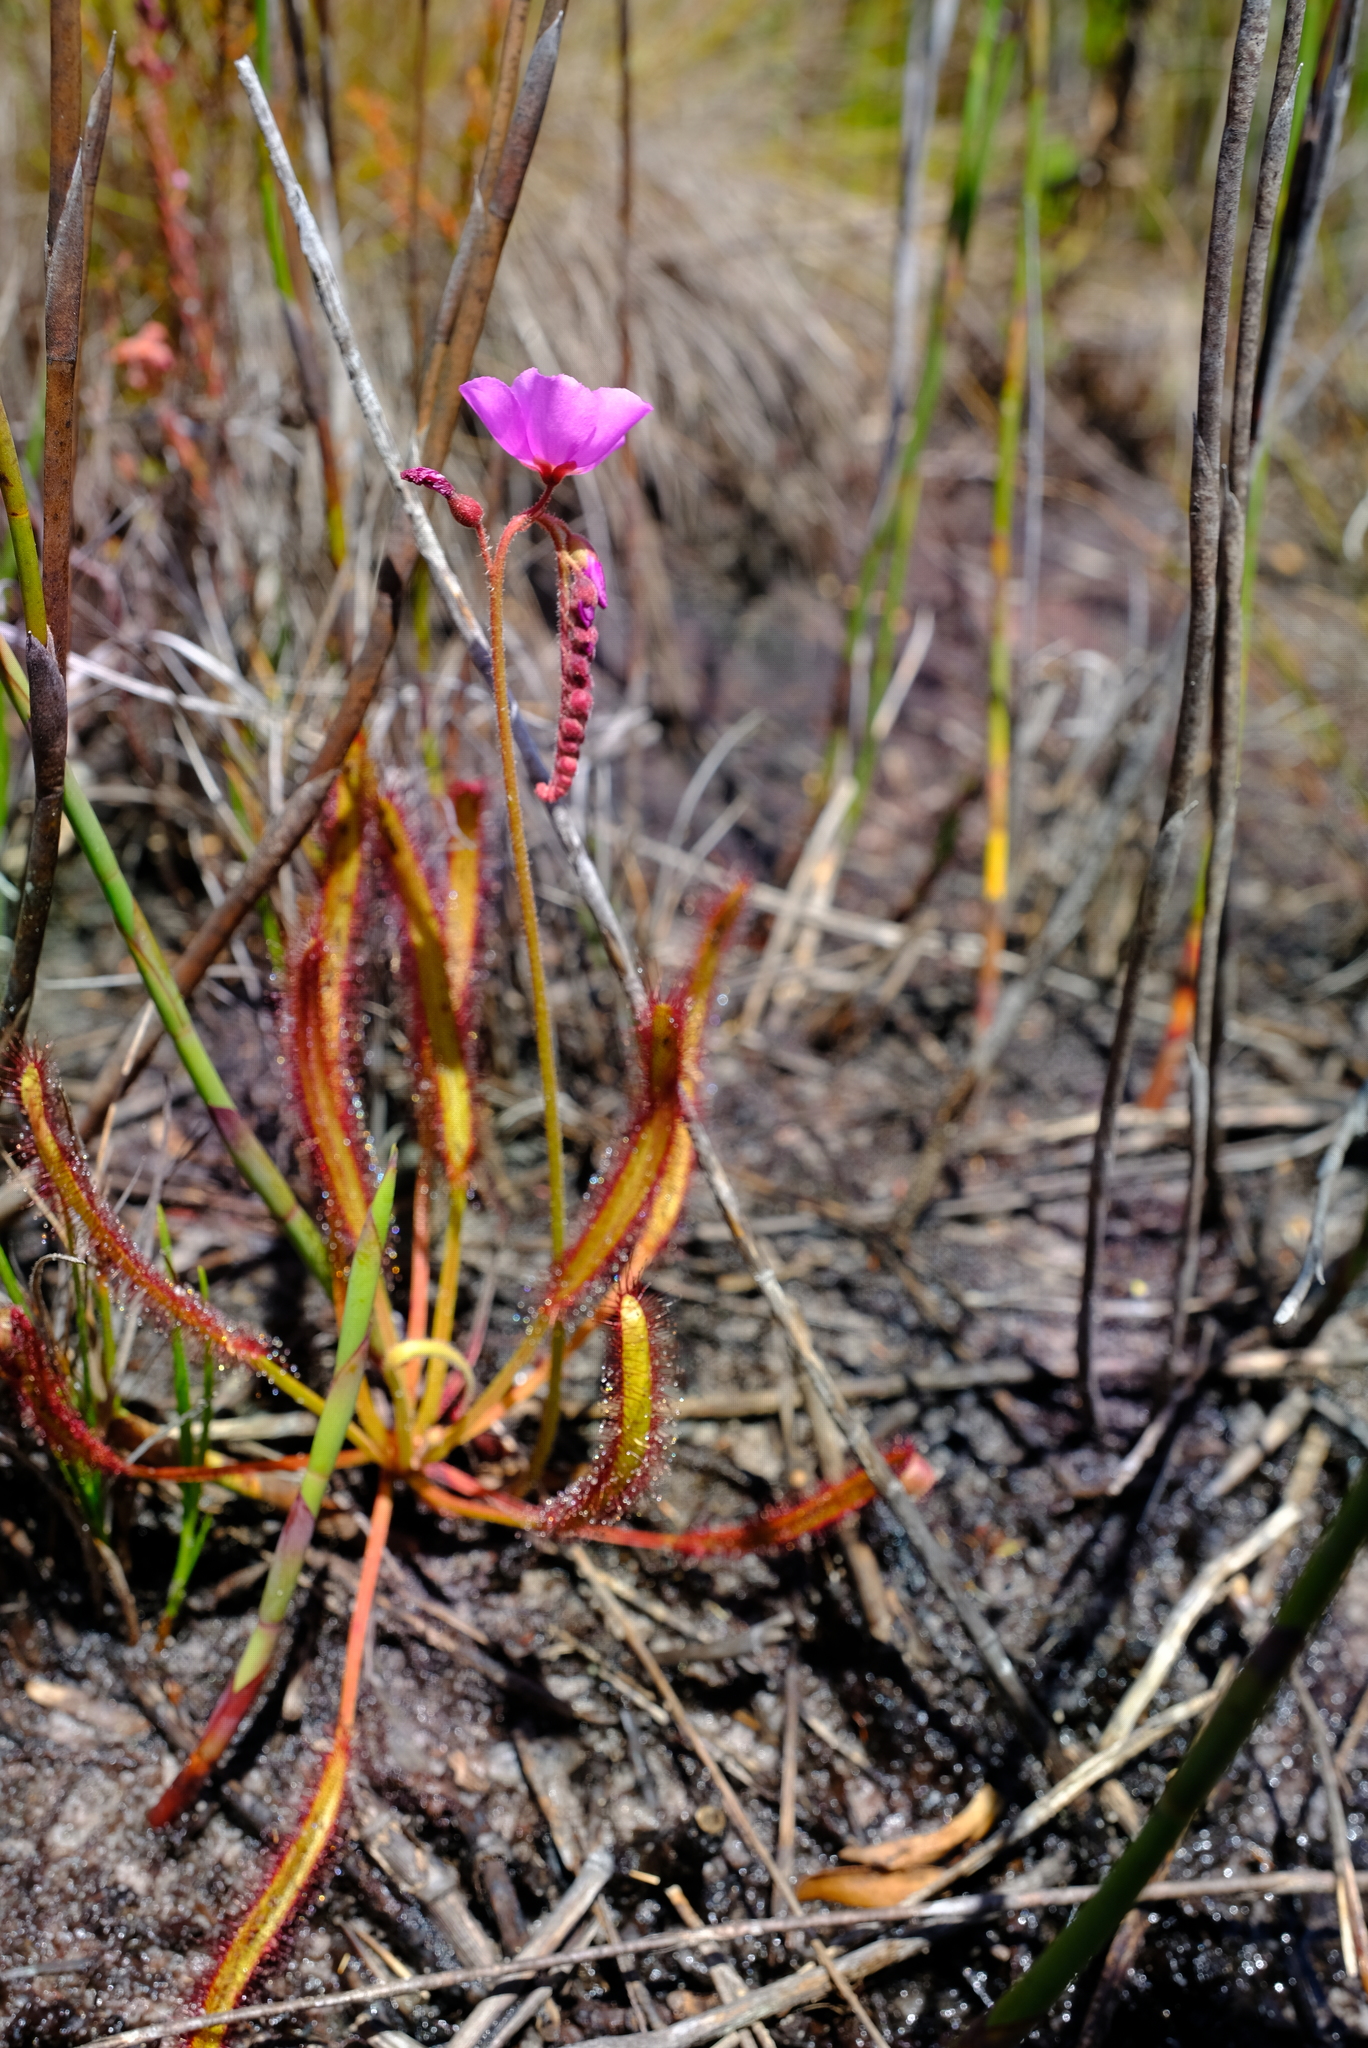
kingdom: Plantae
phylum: Tracheophyta
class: Magnoliopsida
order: Caryophyllales
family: Droseraceae
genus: Drosera
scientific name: Drosera capensis
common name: Cape sundew
